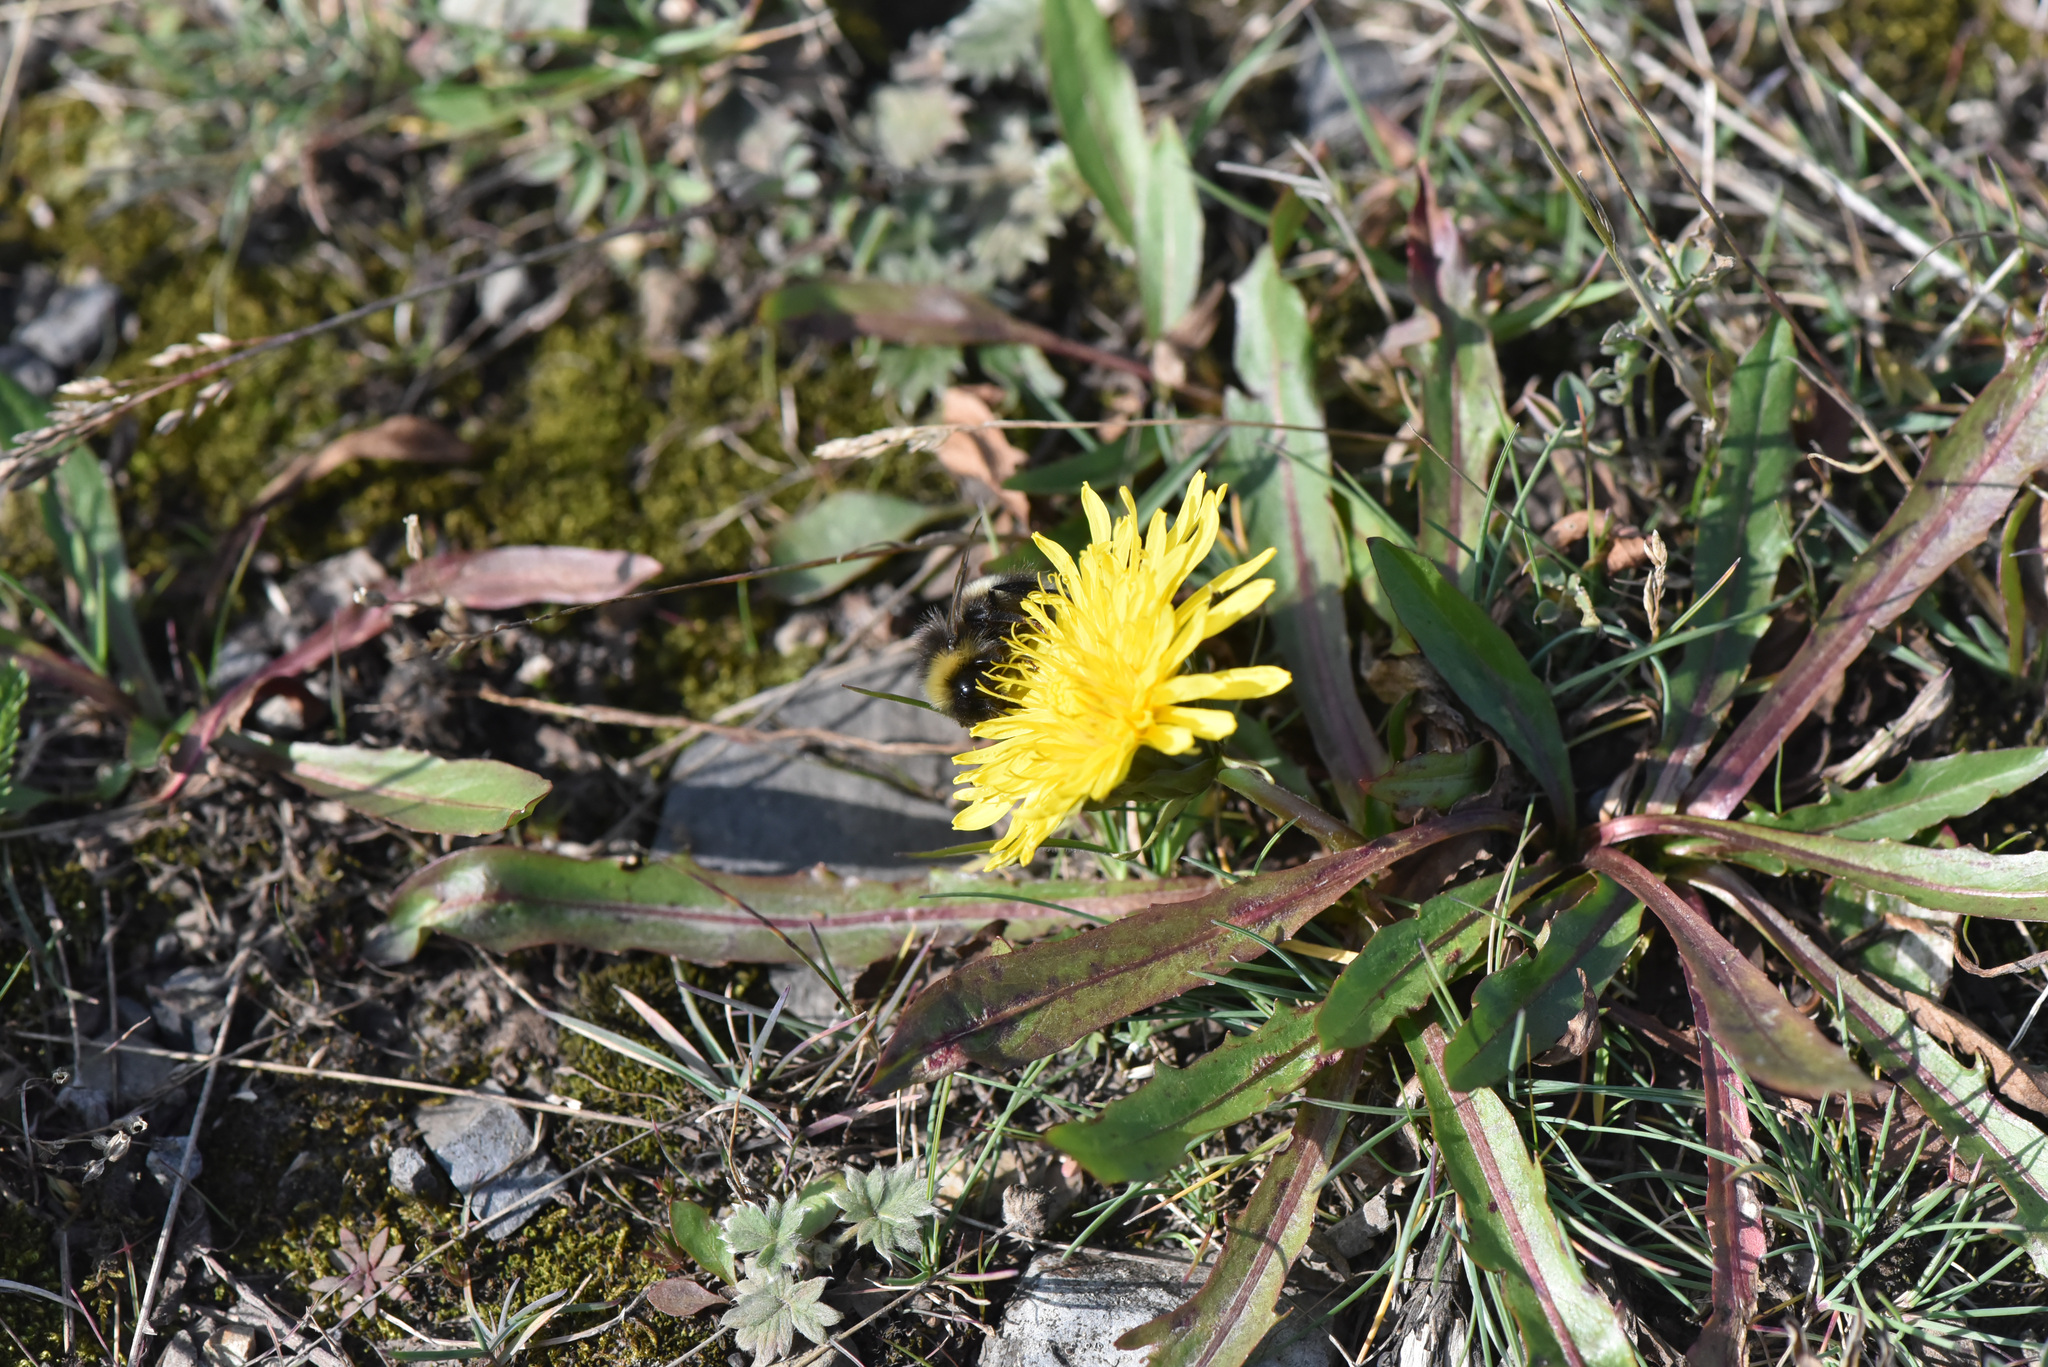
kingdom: Animalia
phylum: Arthropoda
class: Insecta
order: Hymenoptera
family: Apidae
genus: Bombus
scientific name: Bombus cryptarum
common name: Cryptic bumblebee
